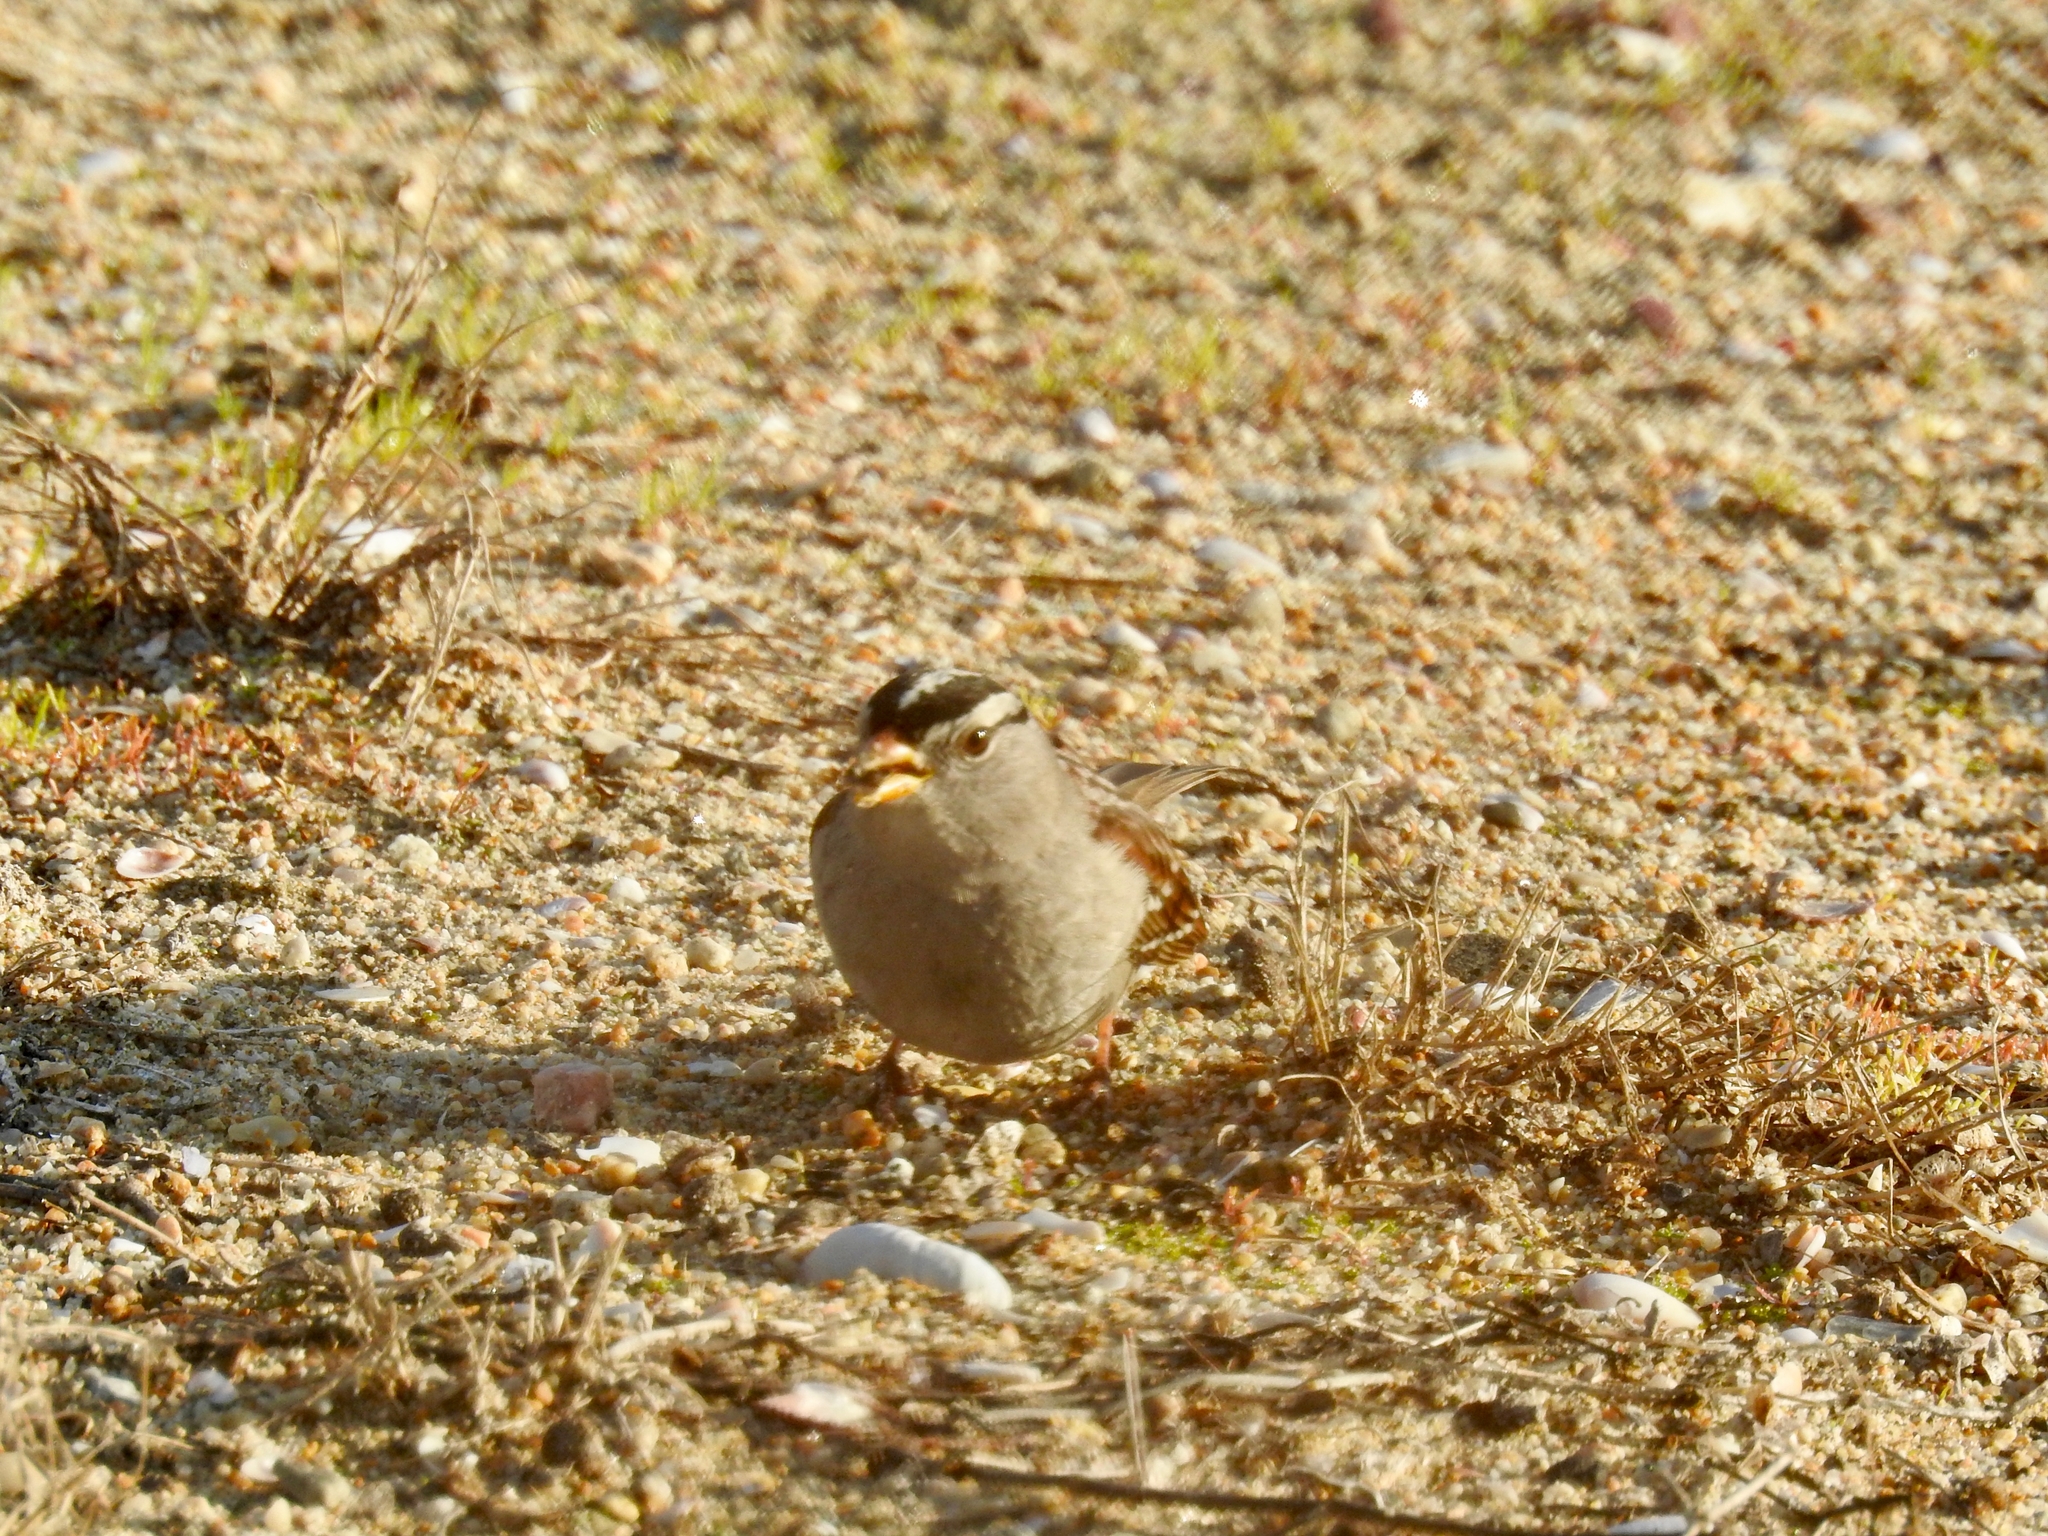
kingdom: Animalia
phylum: Chordata
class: Aves
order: Passeriformes
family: Passerellidae
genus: Zonotrichia
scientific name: Zonotrichia leucophrys
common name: White-crowned sparrow
